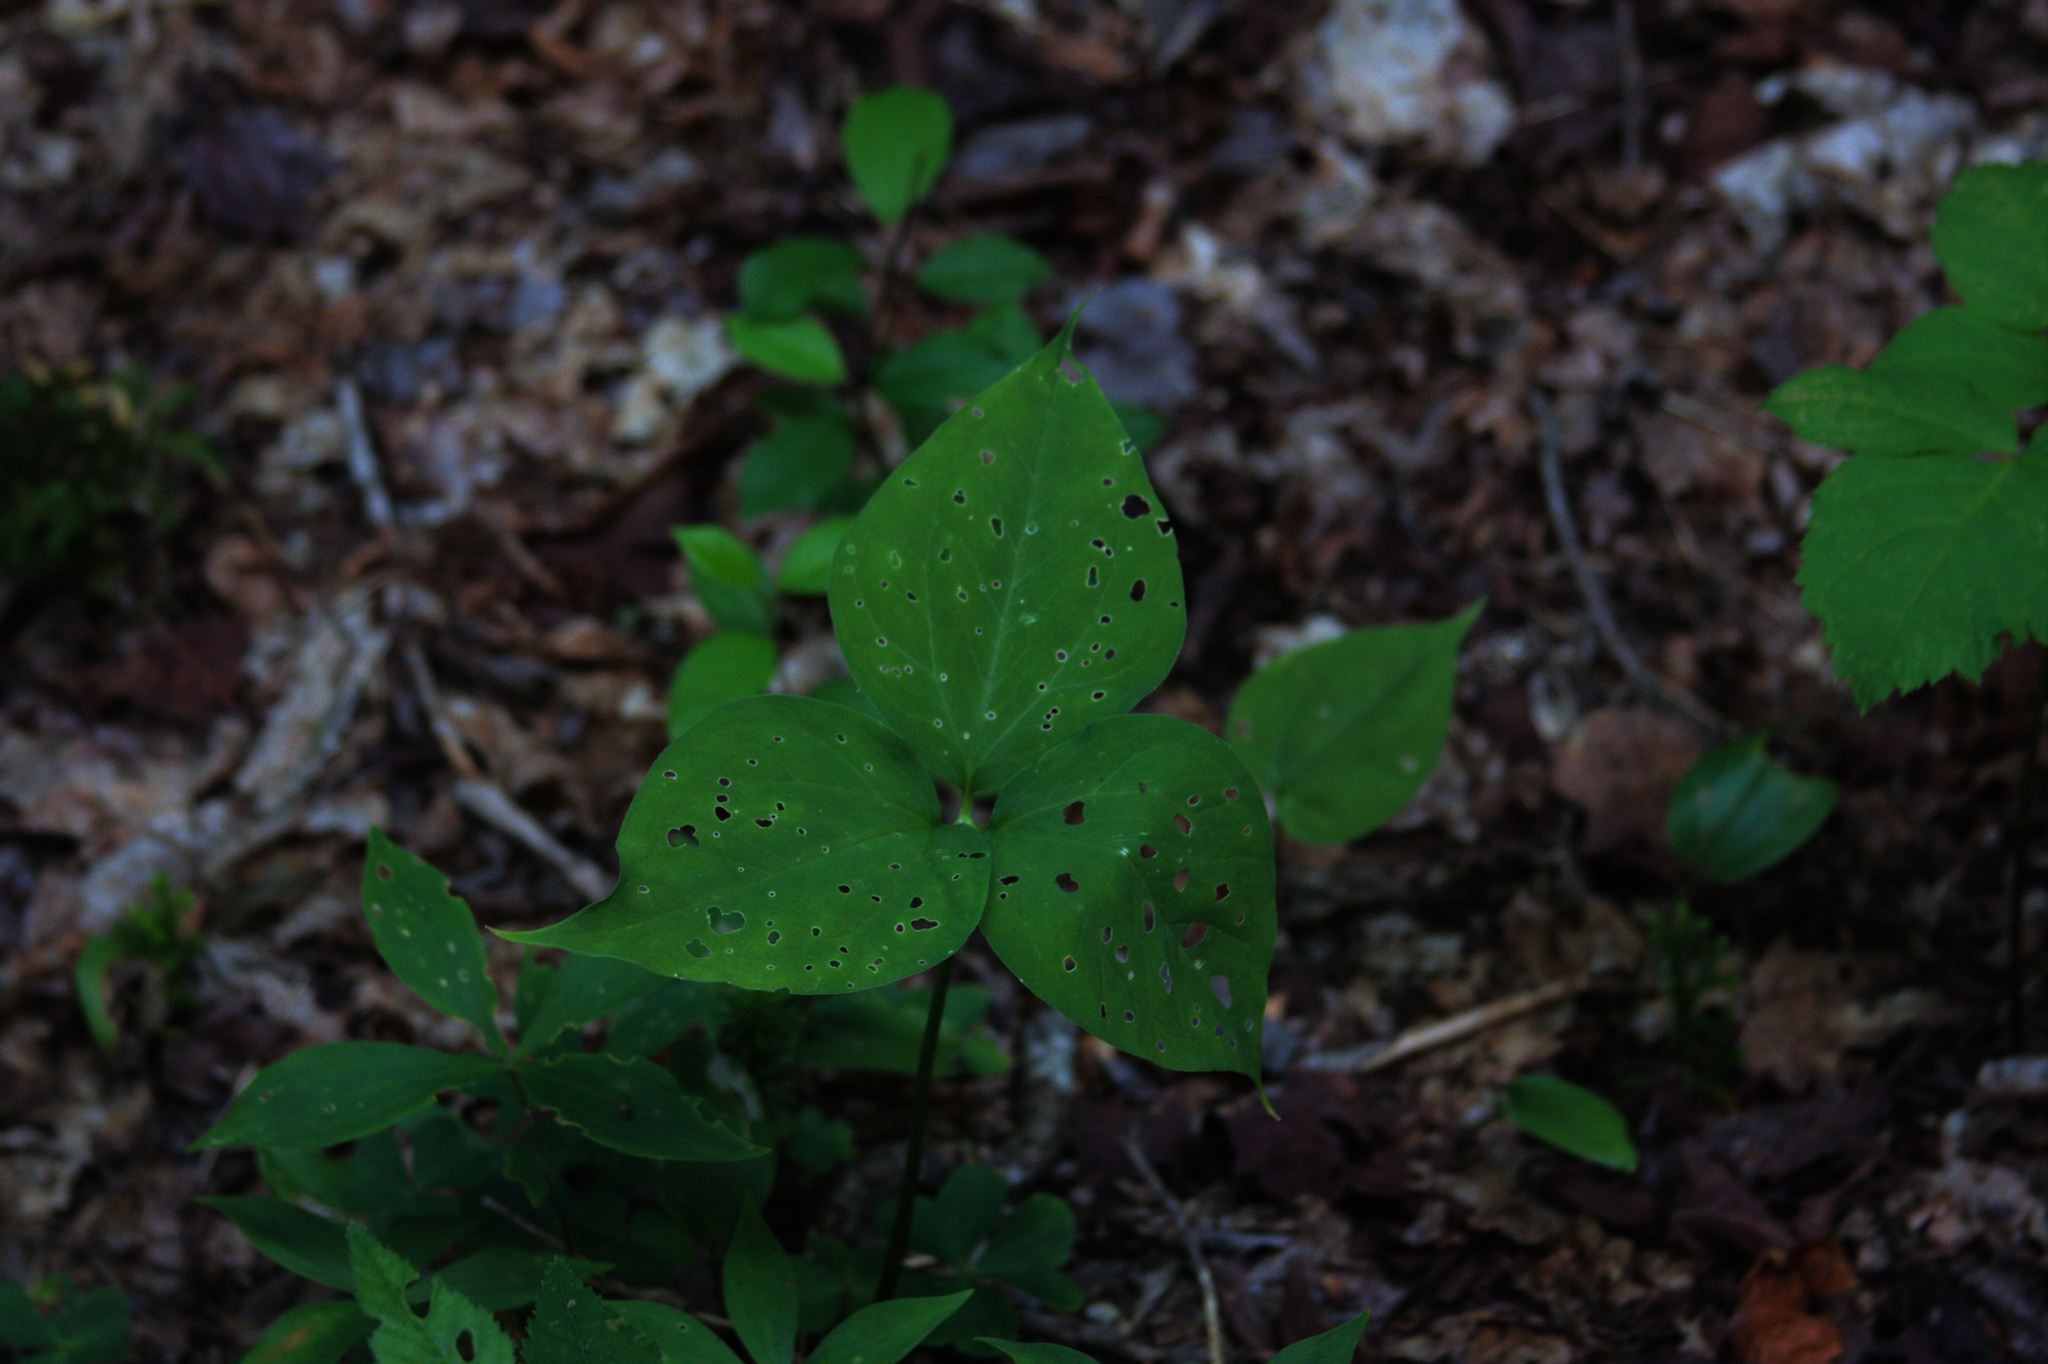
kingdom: Plantae
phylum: Tracheophyta
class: Liliopsida
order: Alismatales
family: Araceae
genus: Arisaema
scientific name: Arisaema triphyllum
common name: Jack-in-the-pulpit
